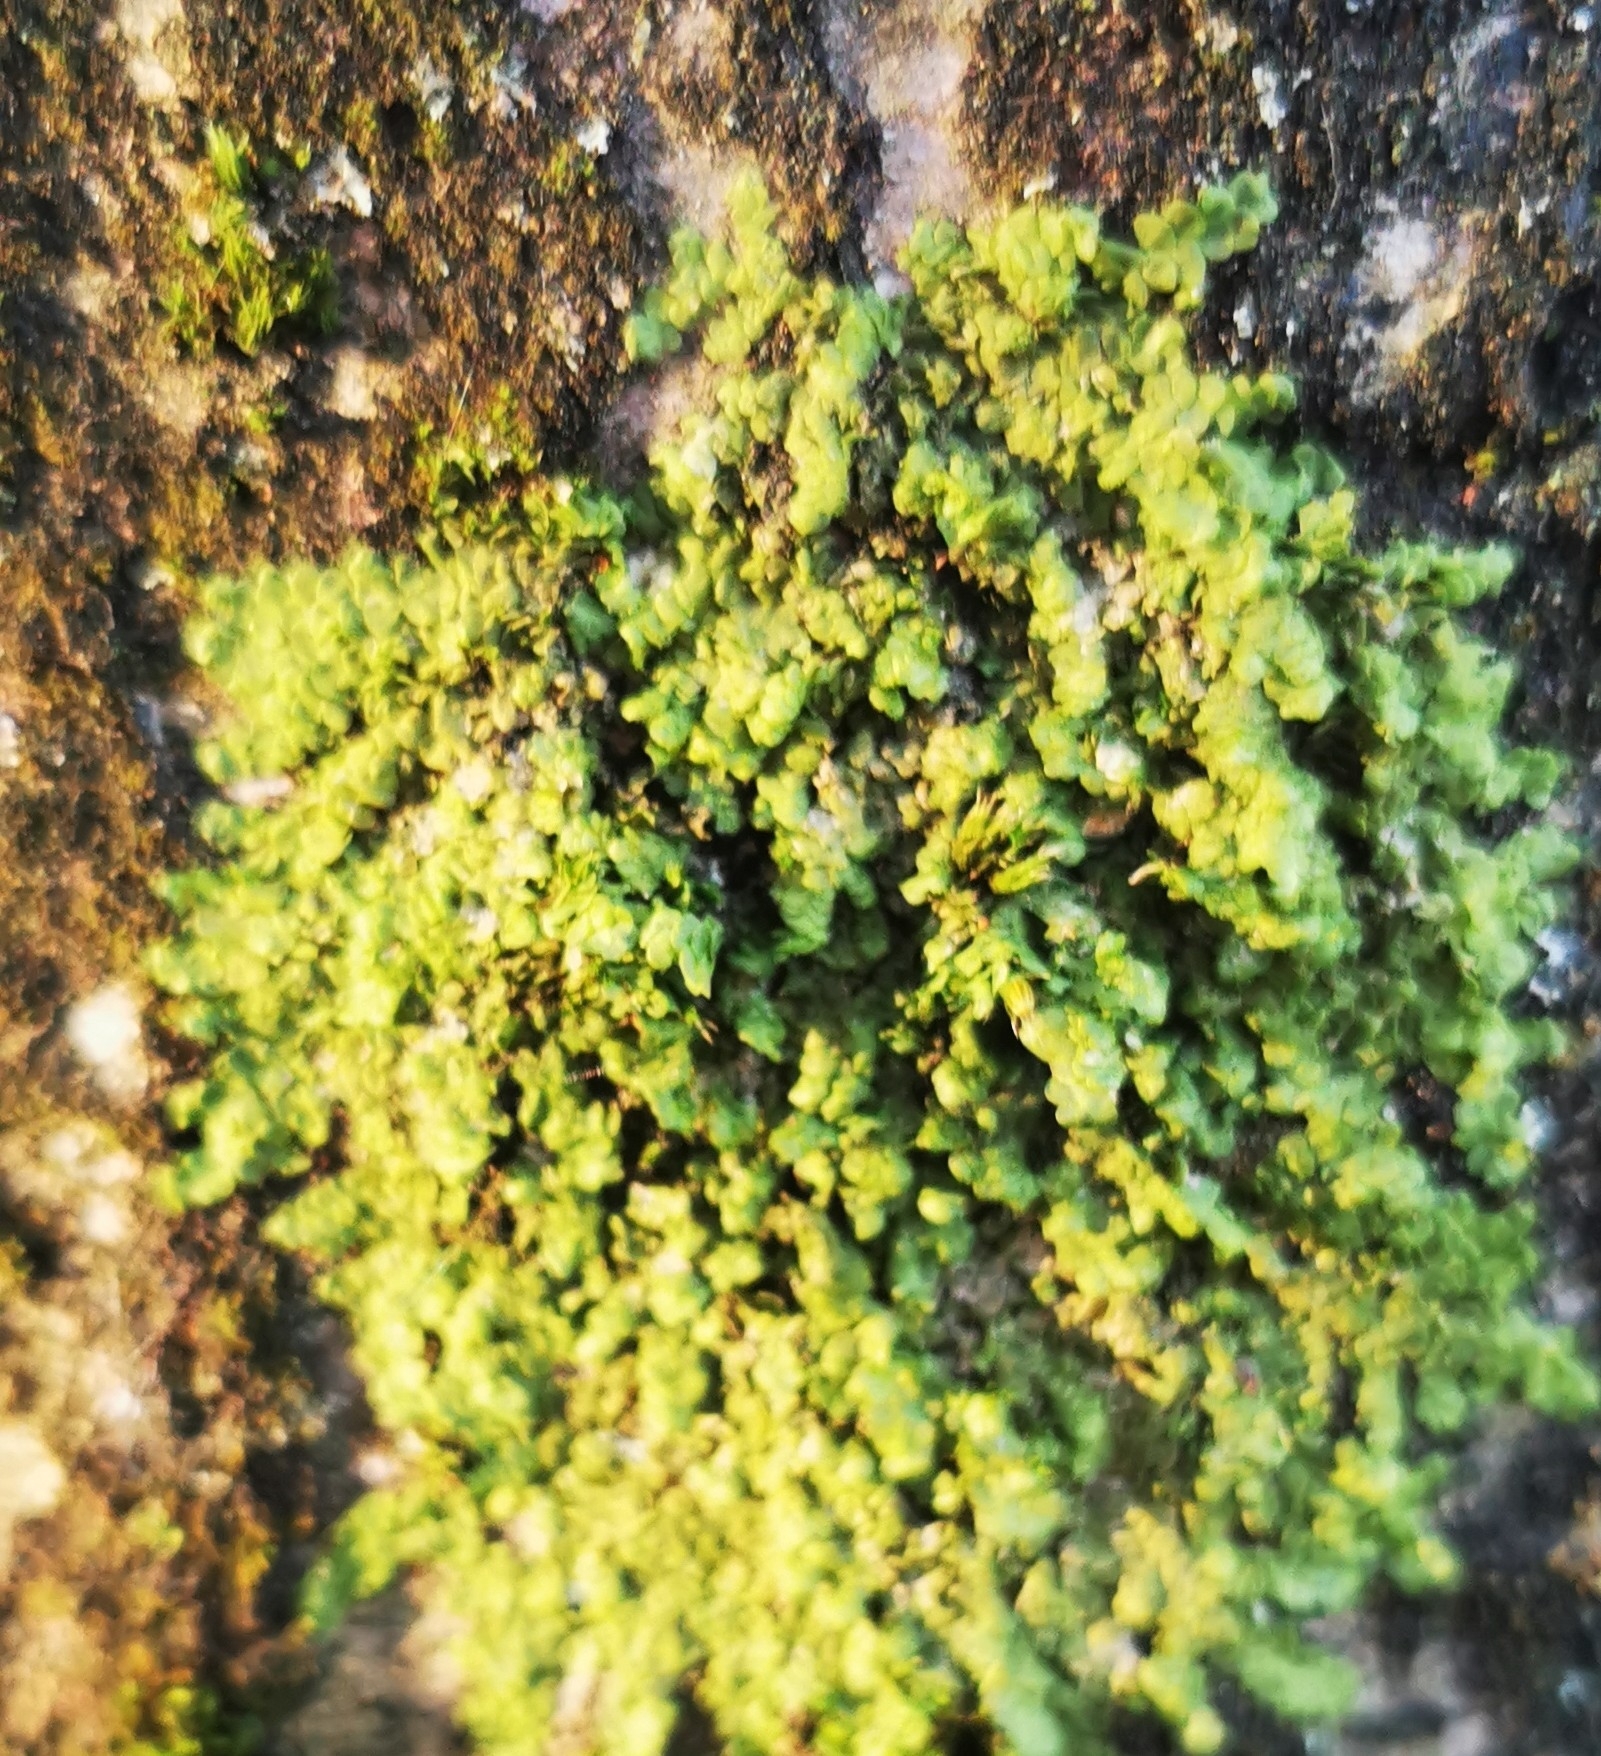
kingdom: Plantae
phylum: Marchantiophyta
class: Jungermanniopsida
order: Porellales
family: Radulaceae
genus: Radula
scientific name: Radula complanata
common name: Flat-leaved scalewort
